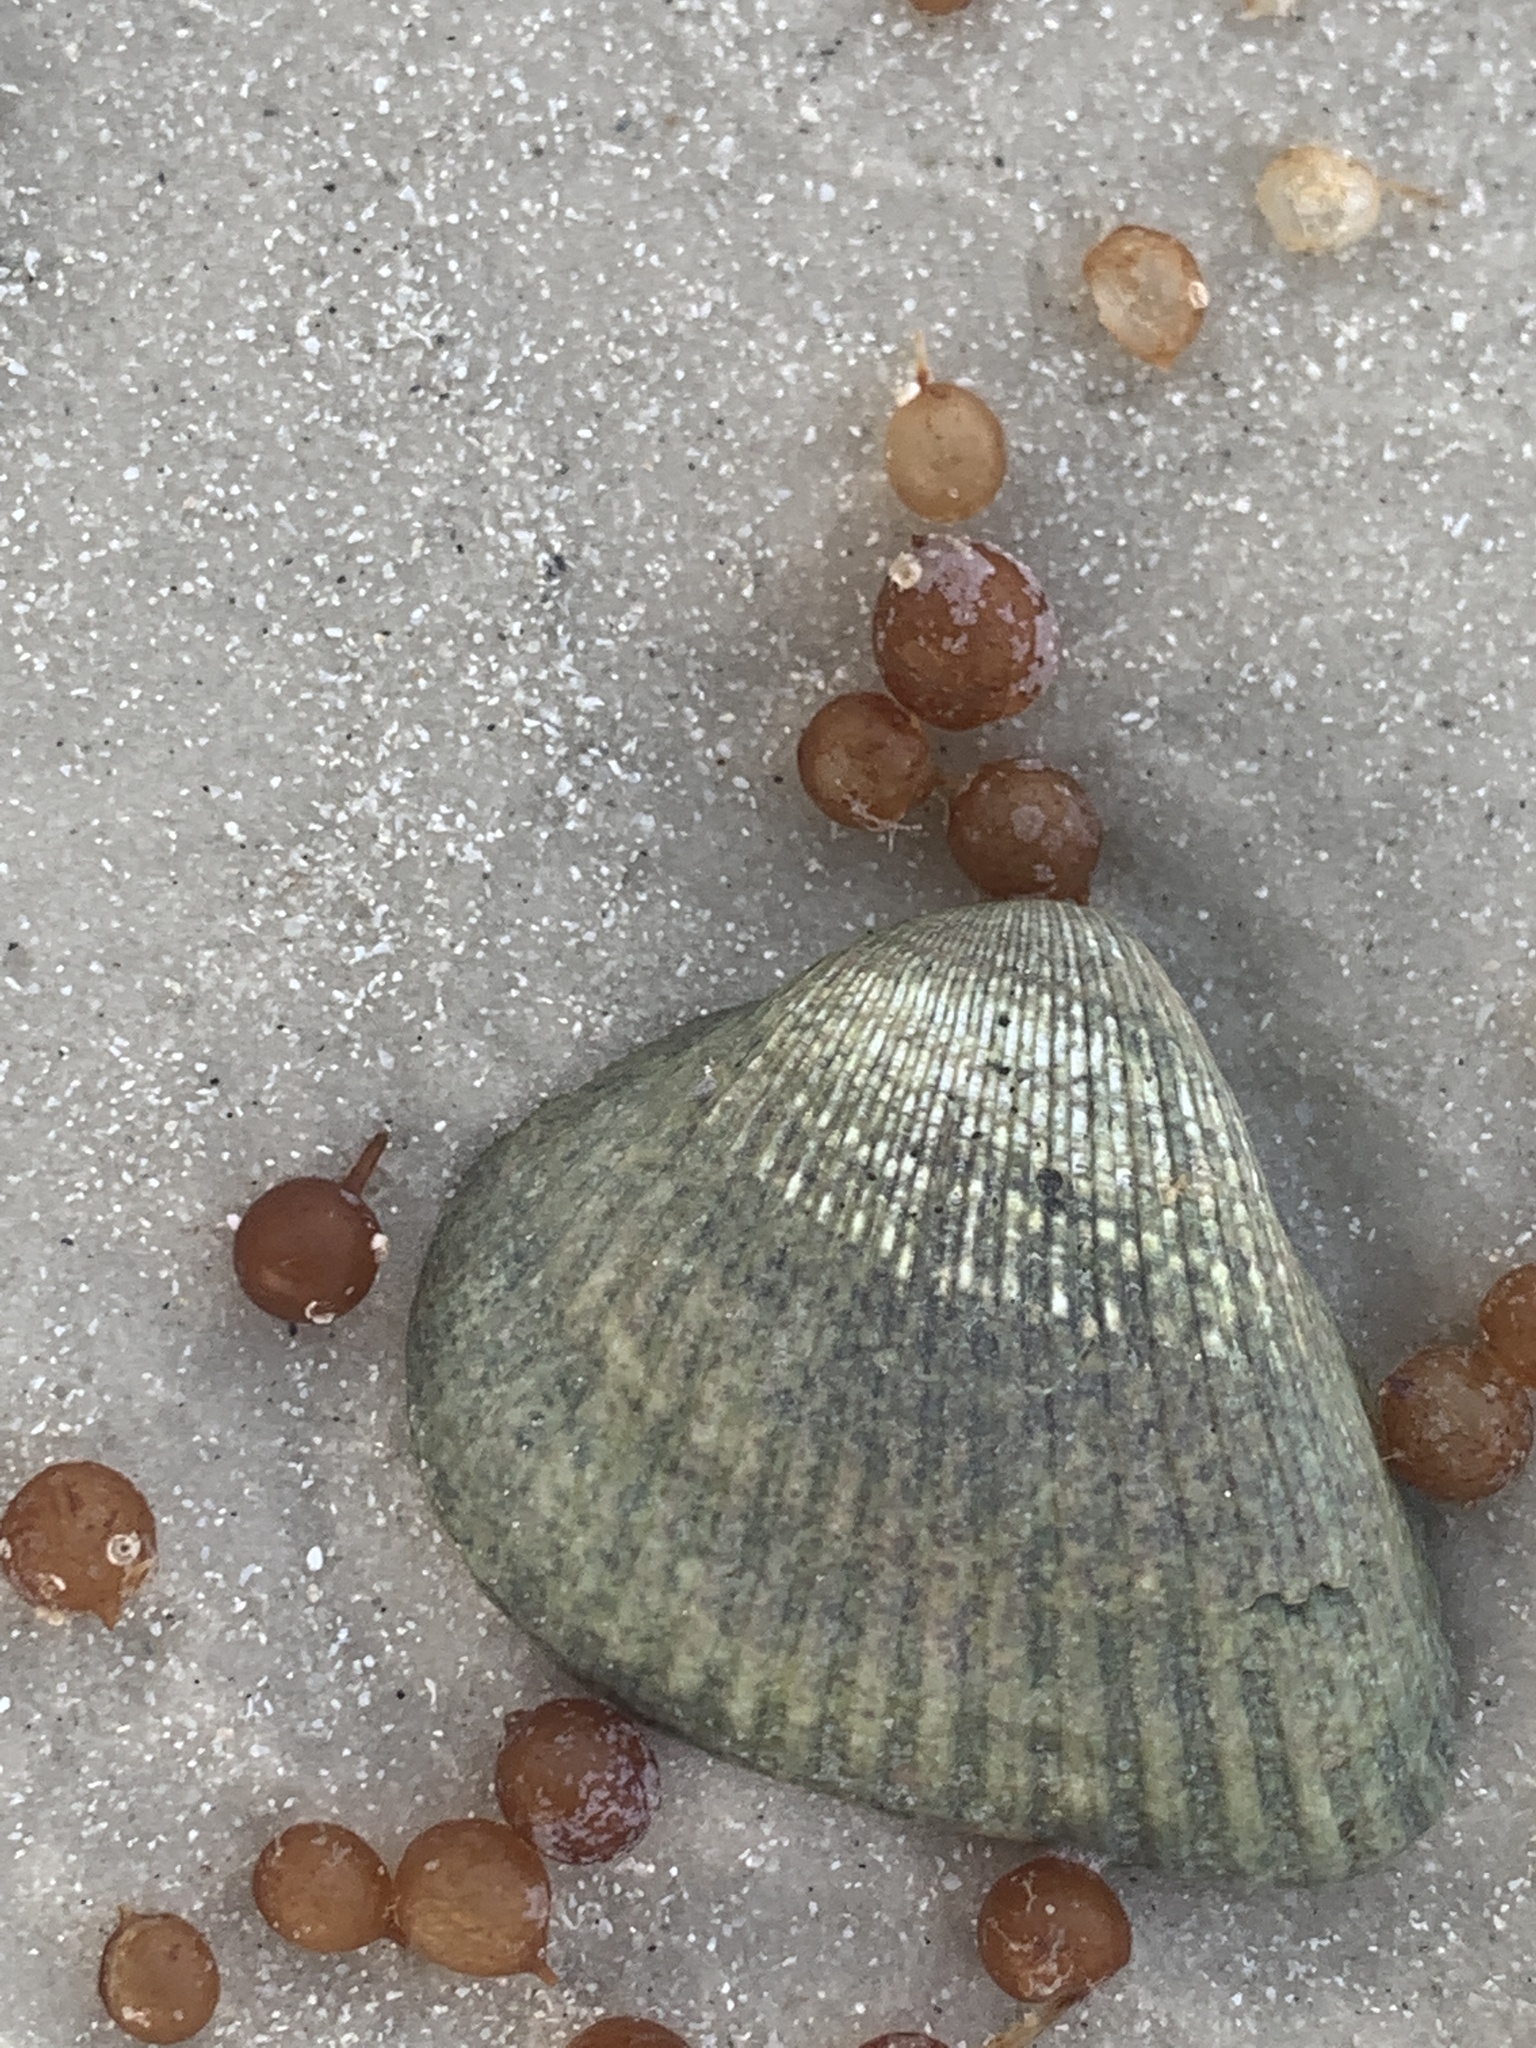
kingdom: Animalia
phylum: Mollusca
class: Bivalvia
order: Arcida
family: Noetiidae
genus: Noetia
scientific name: Noetia ponderosa
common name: Ponderous ark
